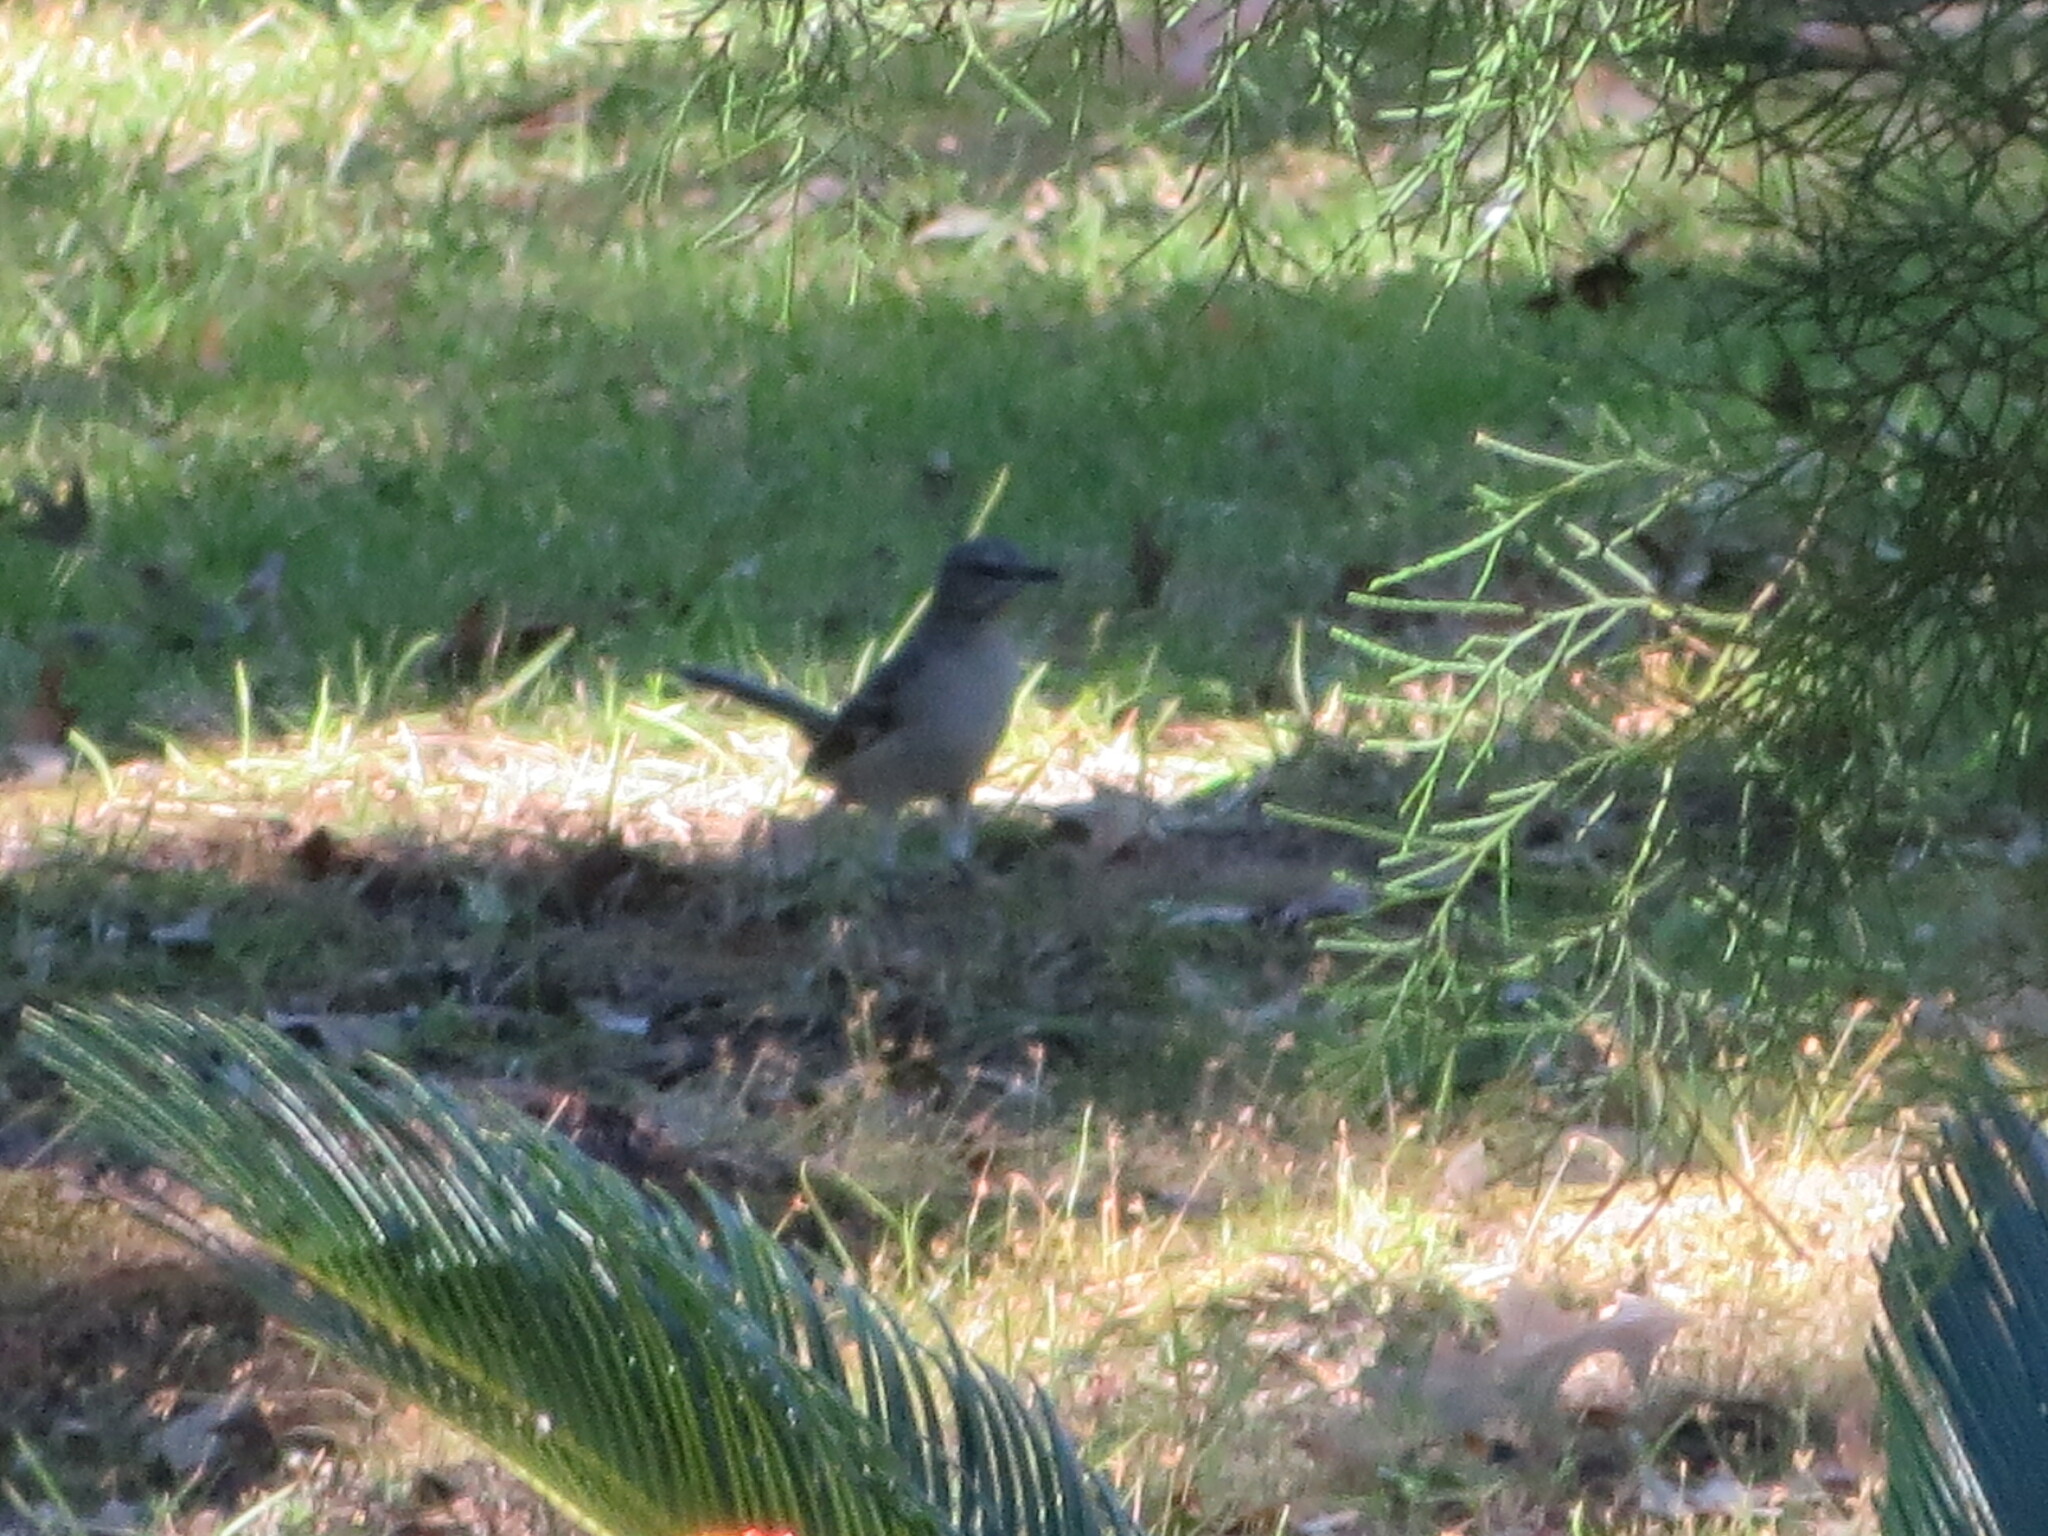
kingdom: Animalia
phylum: Chordata
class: Aves
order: Passeriformes
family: Mimidae
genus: Mimus
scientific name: Mimus polyglottos
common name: Northern mockingbird
